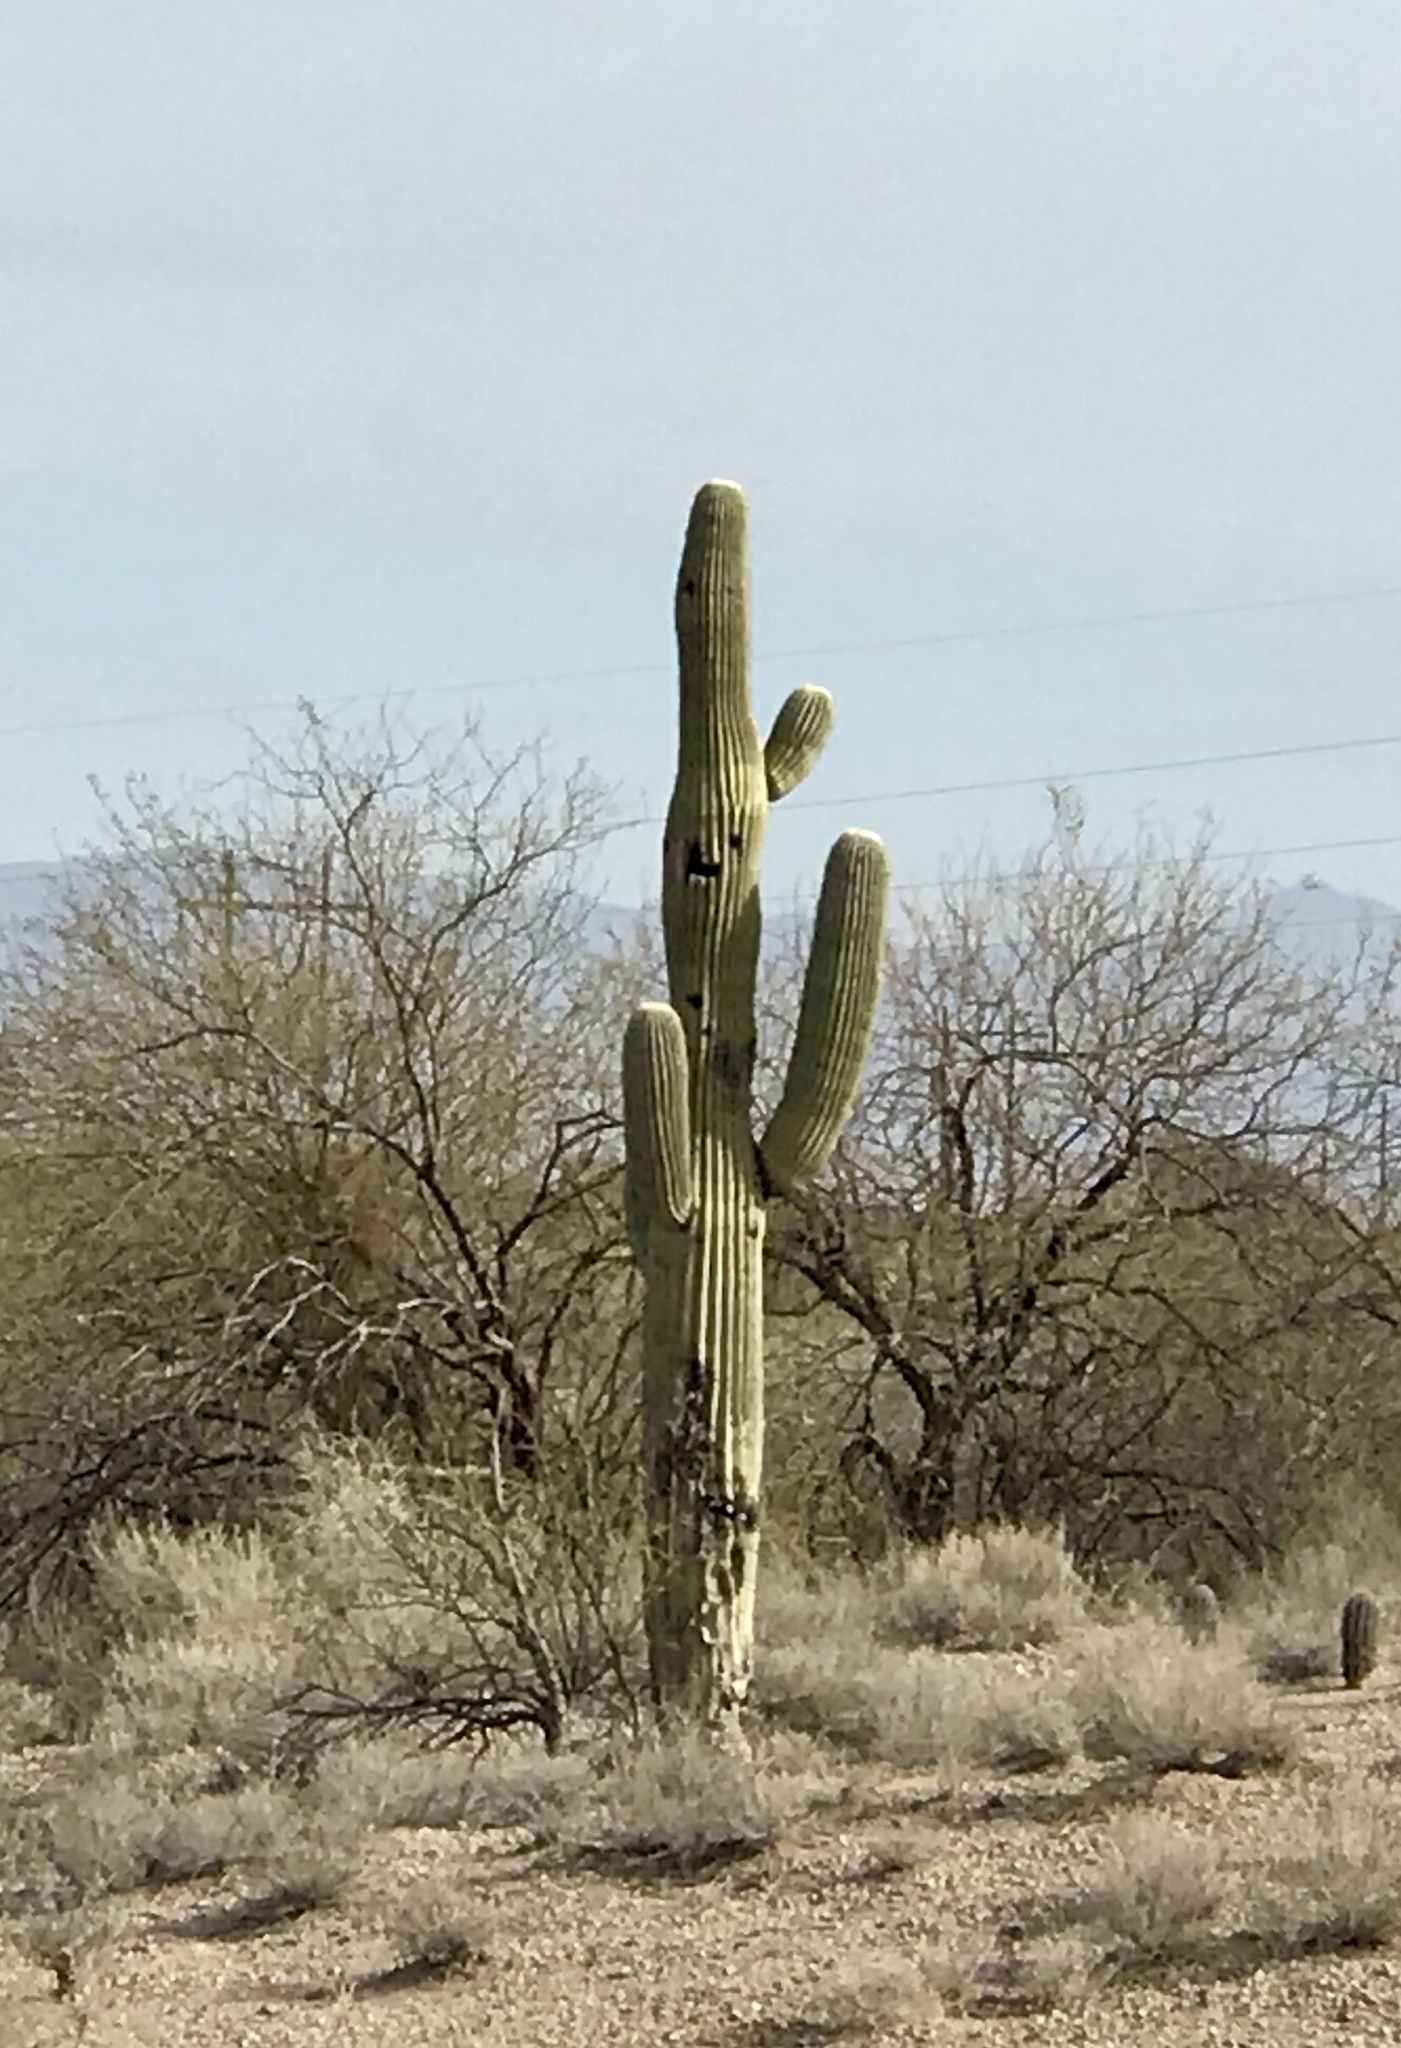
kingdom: Plantae
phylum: Tracheophyta
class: Magnoliopsida
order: Caryophyllales
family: Cactaceae
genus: Carnegiea
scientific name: Carnegiea gigantea
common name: Saguaro
